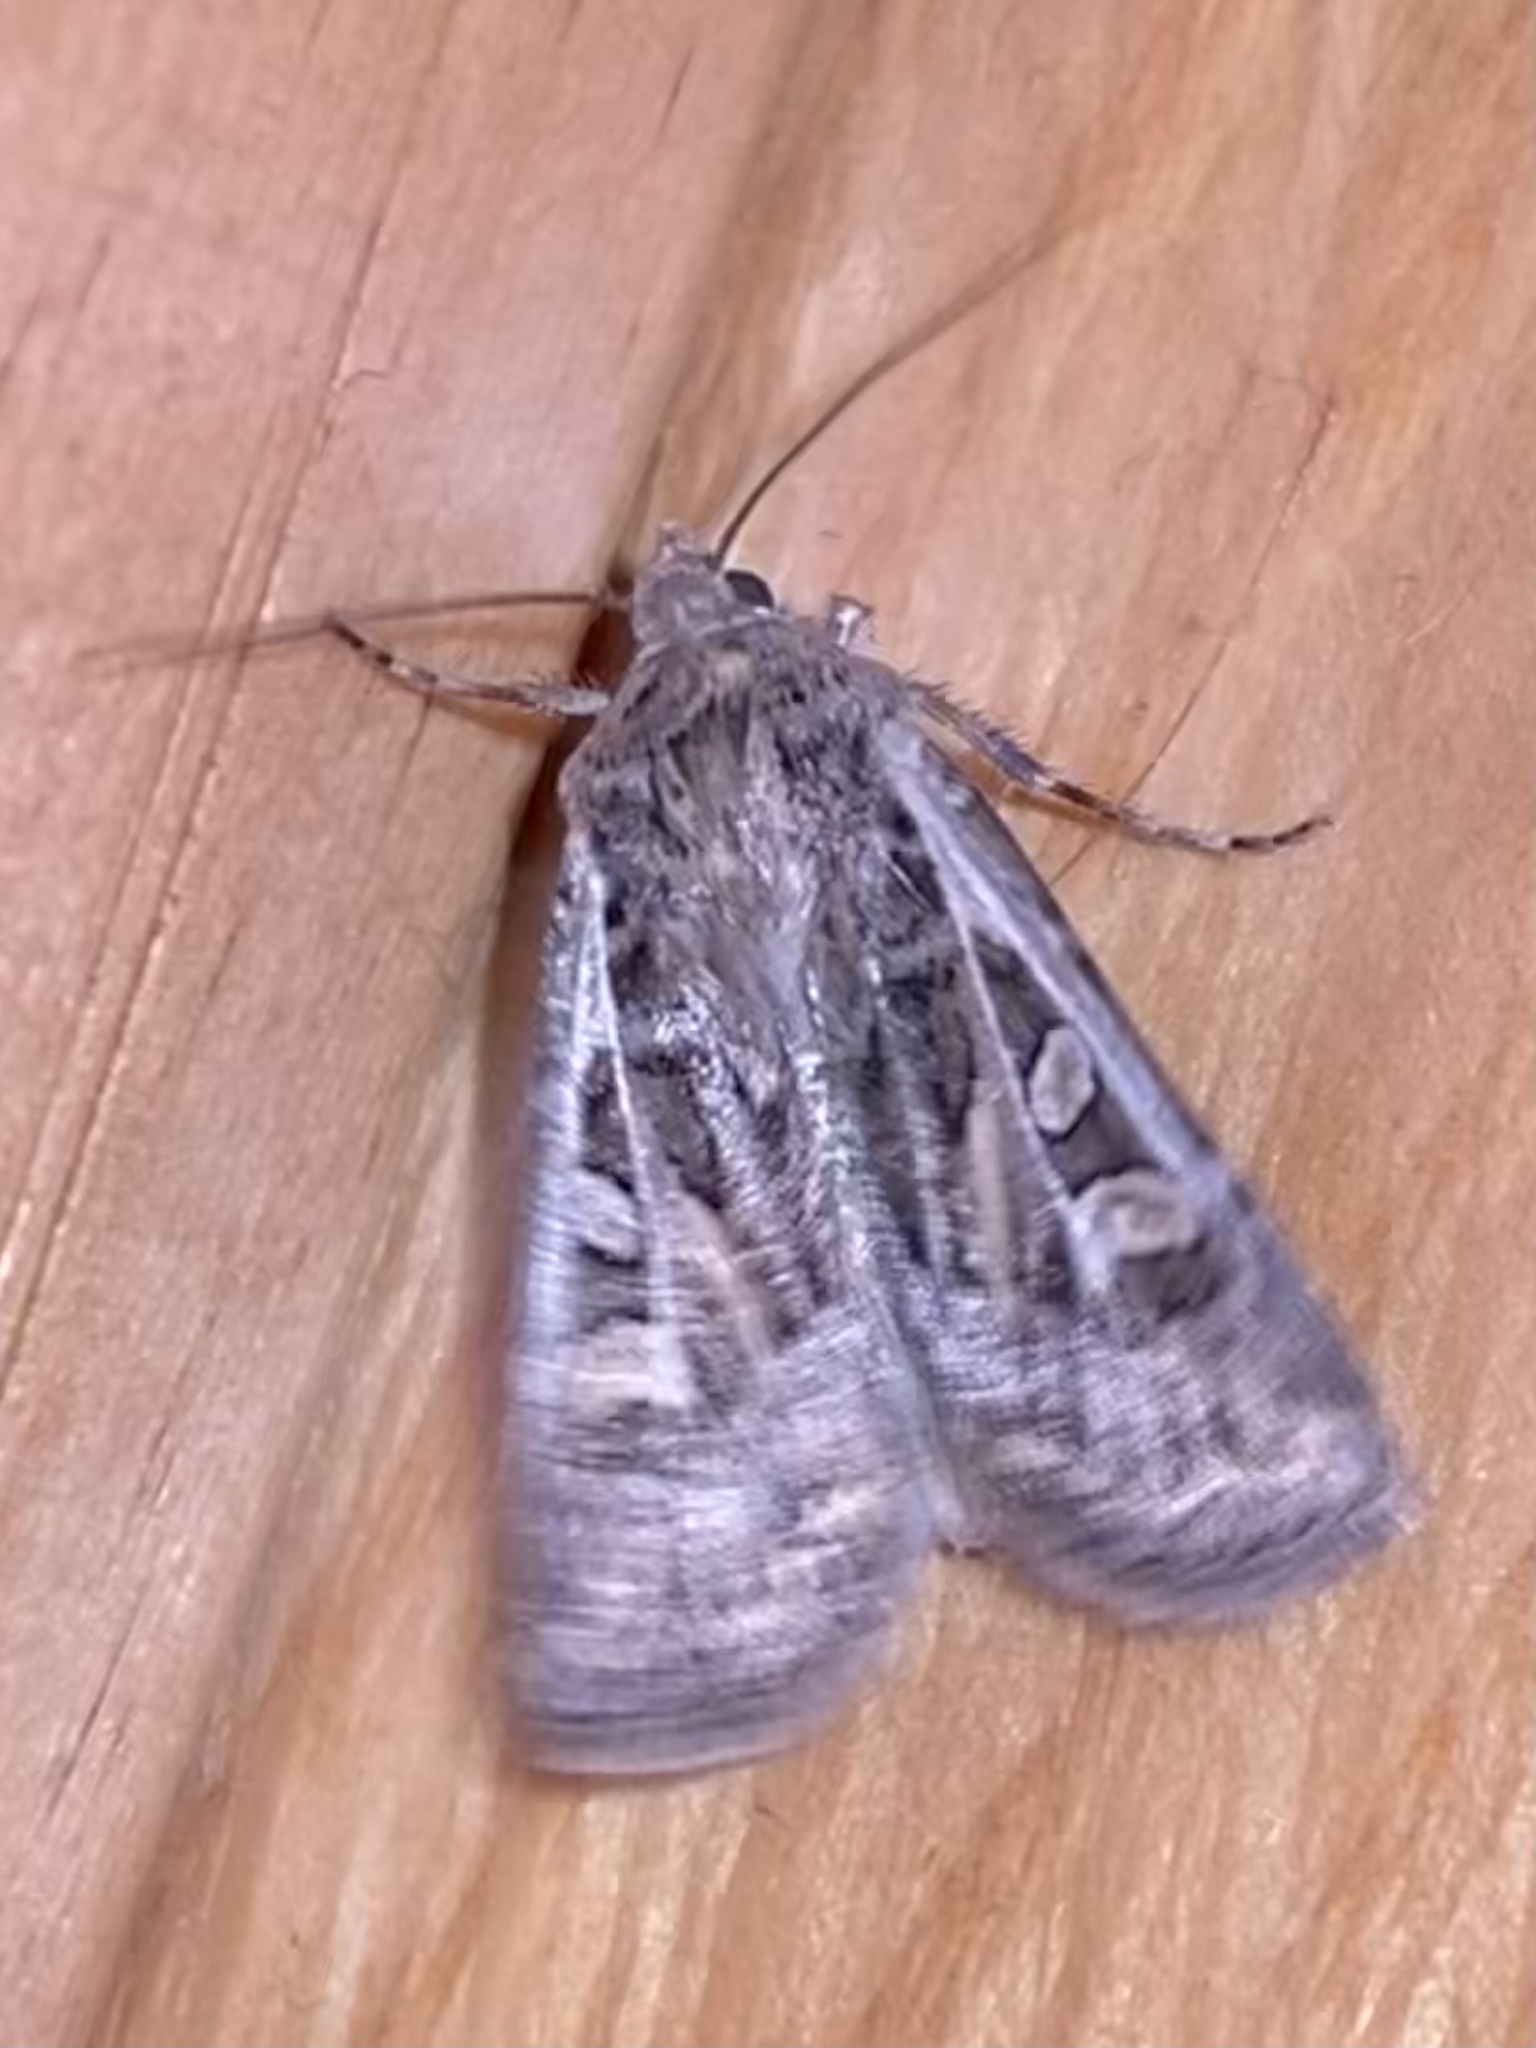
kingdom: Animalia
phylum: Arthropoda
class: Insecta
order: Lepidoptera
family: Noctuidae
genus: Euxoa
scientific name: Euxoa auxiliaris
